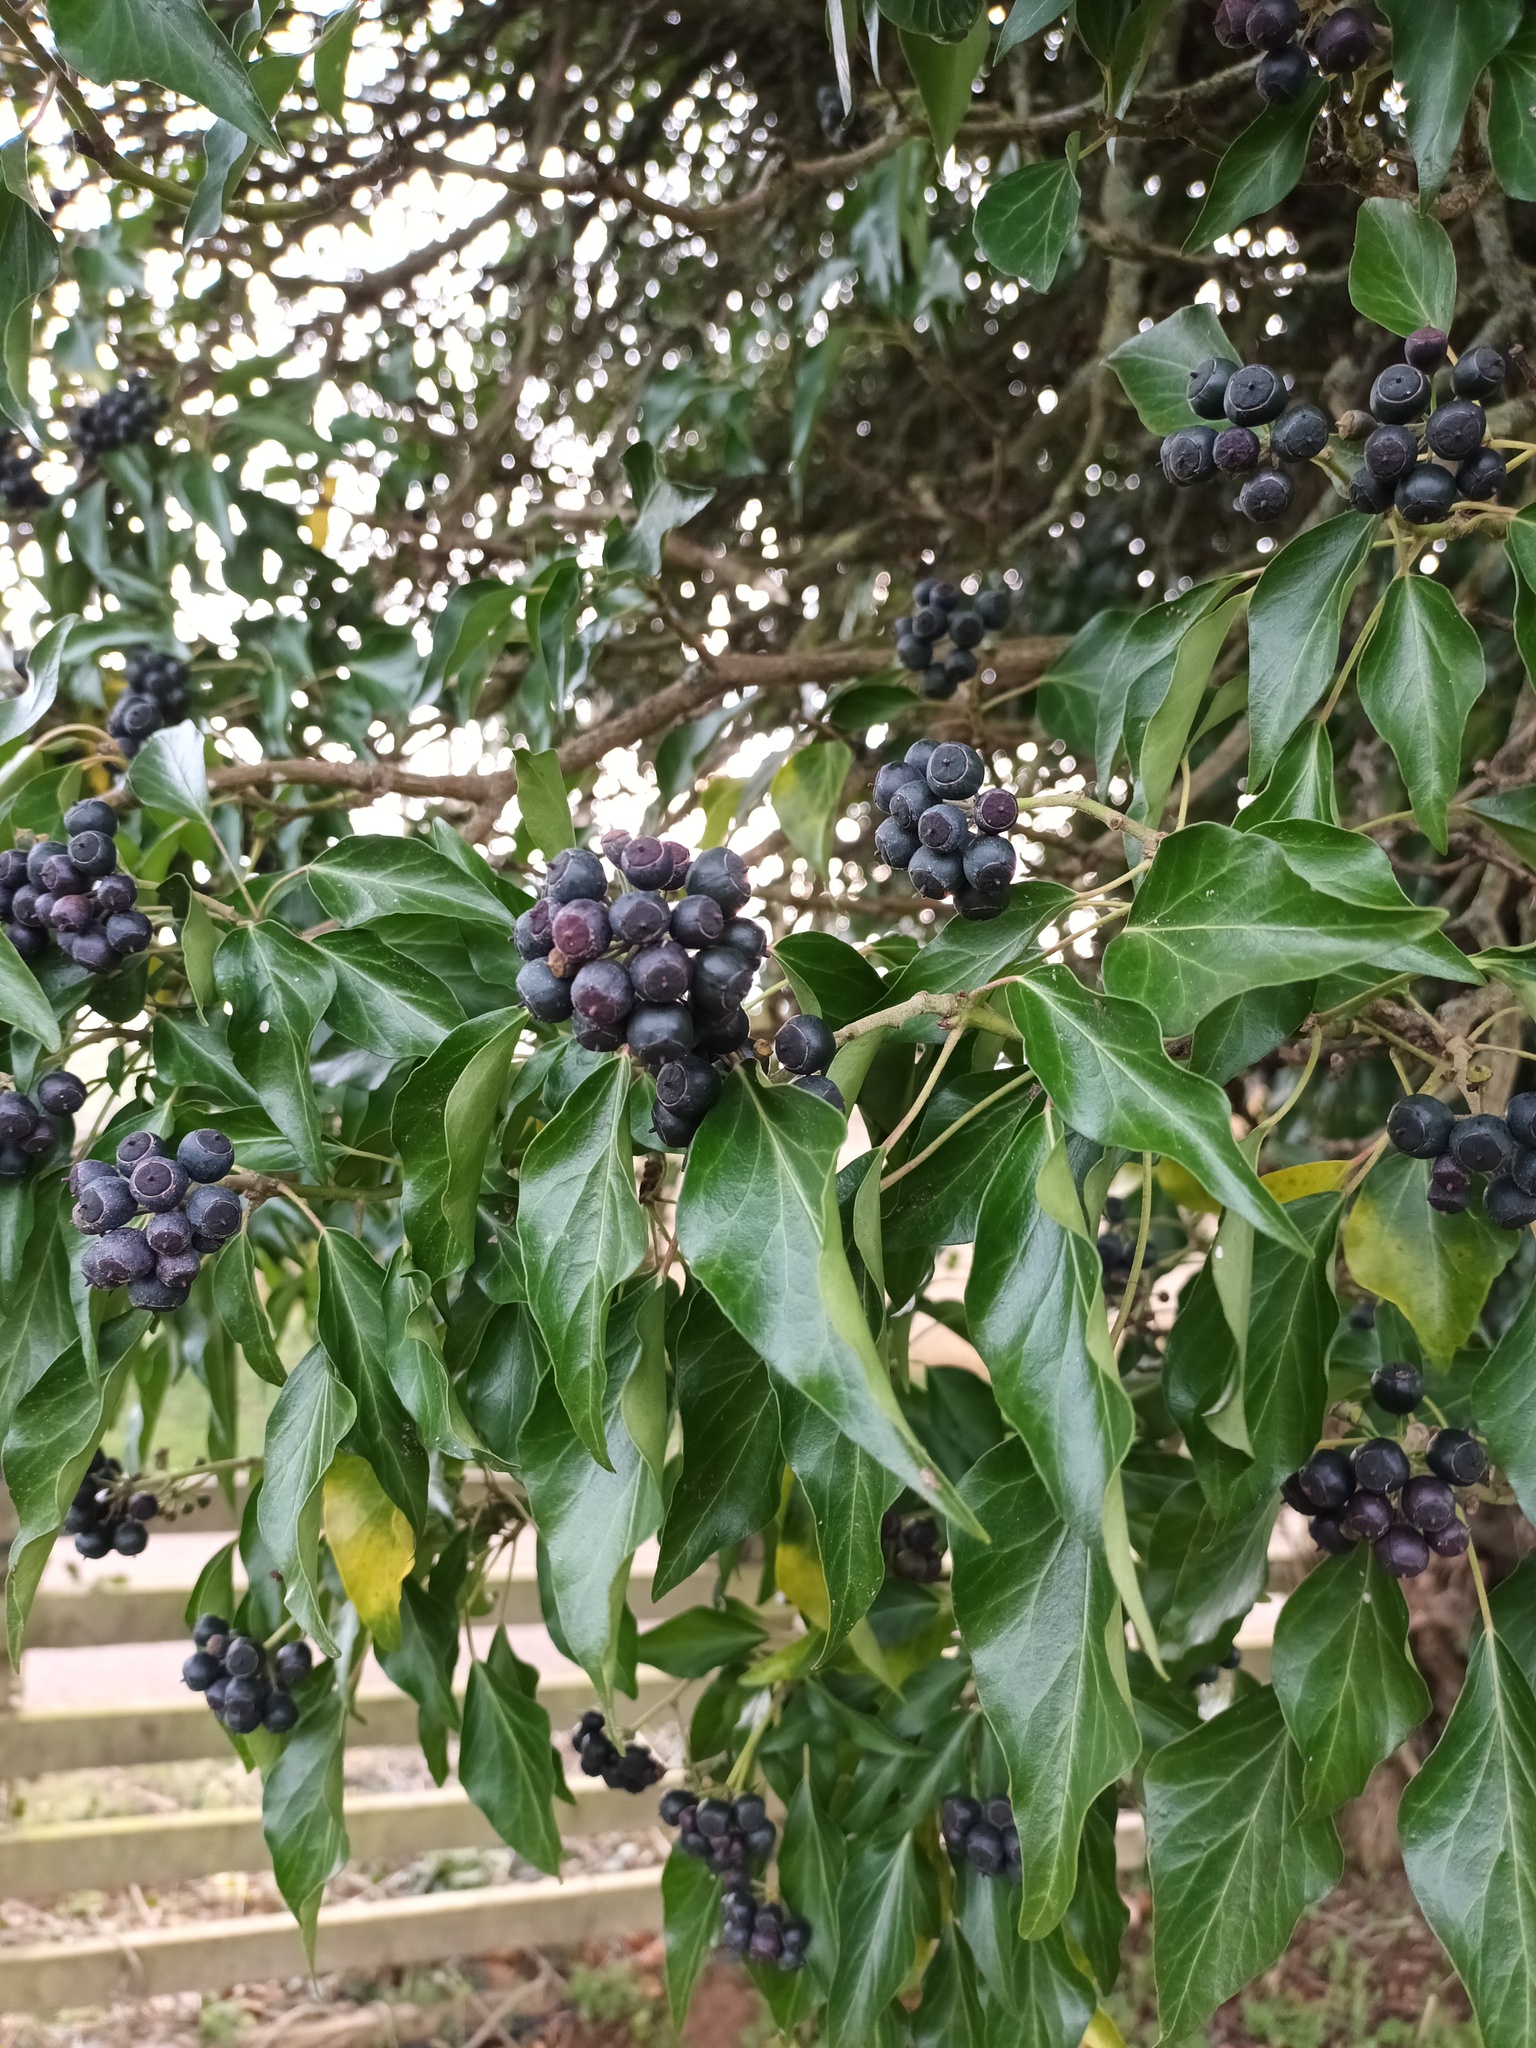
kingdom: Plantae
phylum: Tracheophyta
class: Magnoliopsida
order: Apiales
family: Araliaceae
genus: Hedera
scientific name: Hedera helix
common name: Ivy
